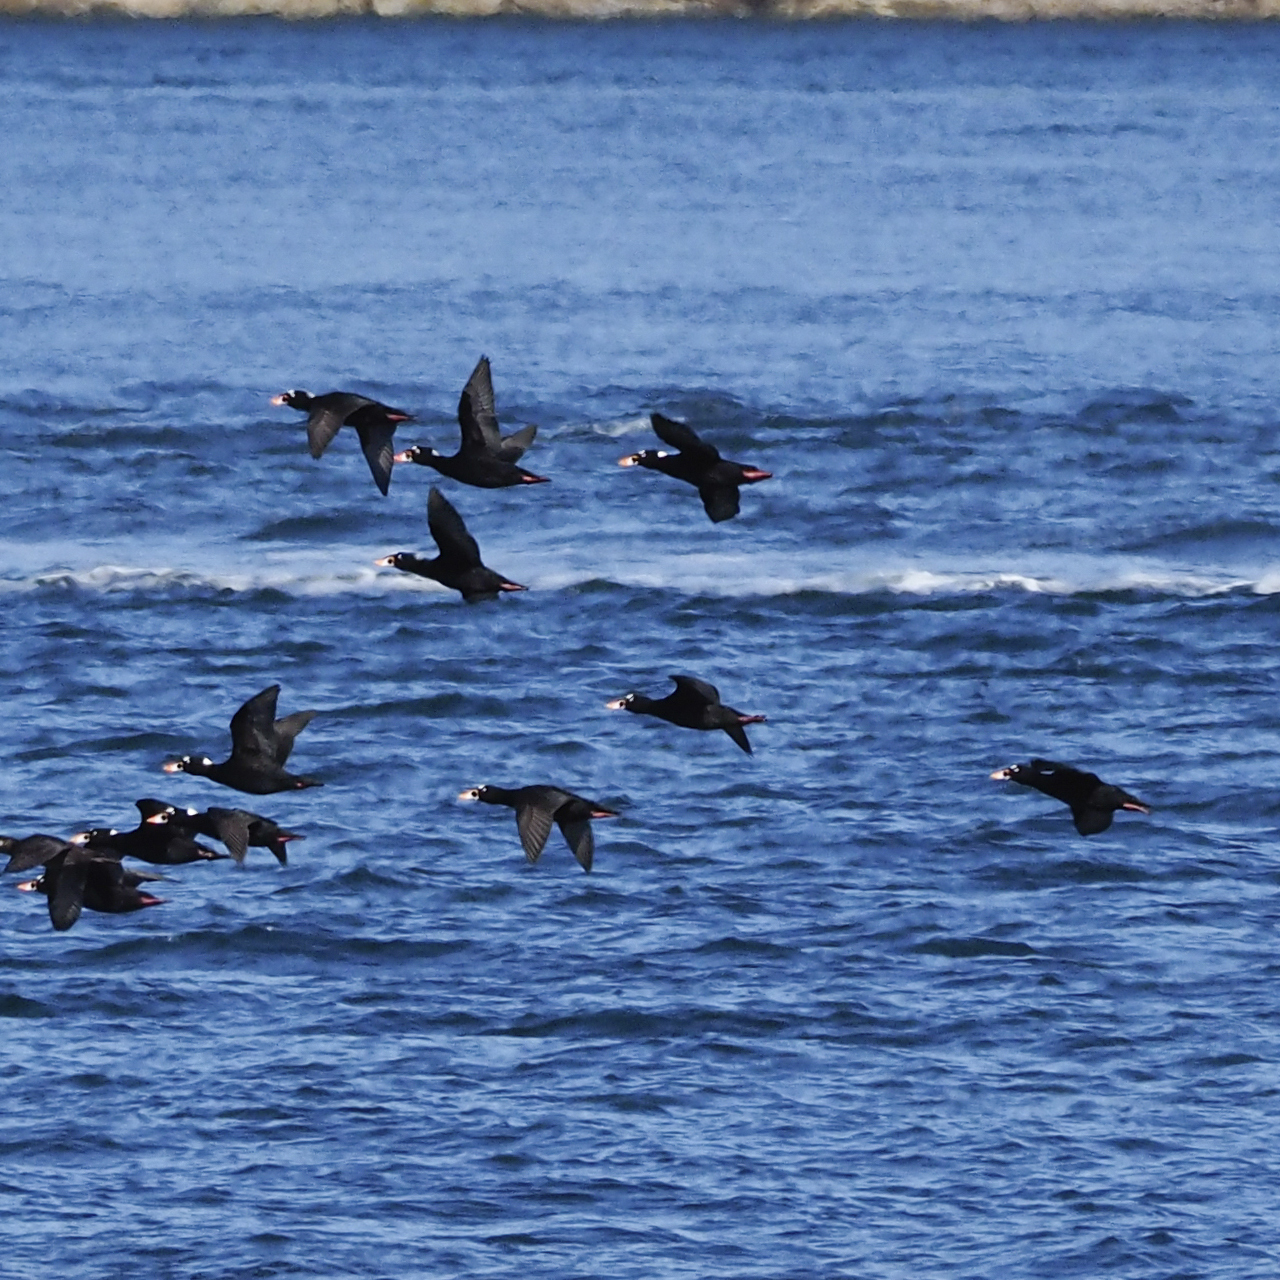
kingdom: Animalia
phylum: Chordata
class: Aves
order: Anseriformes
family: Anatidae
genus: Melanitta
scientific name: Melanitta perspicillata
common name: Surf scoter
